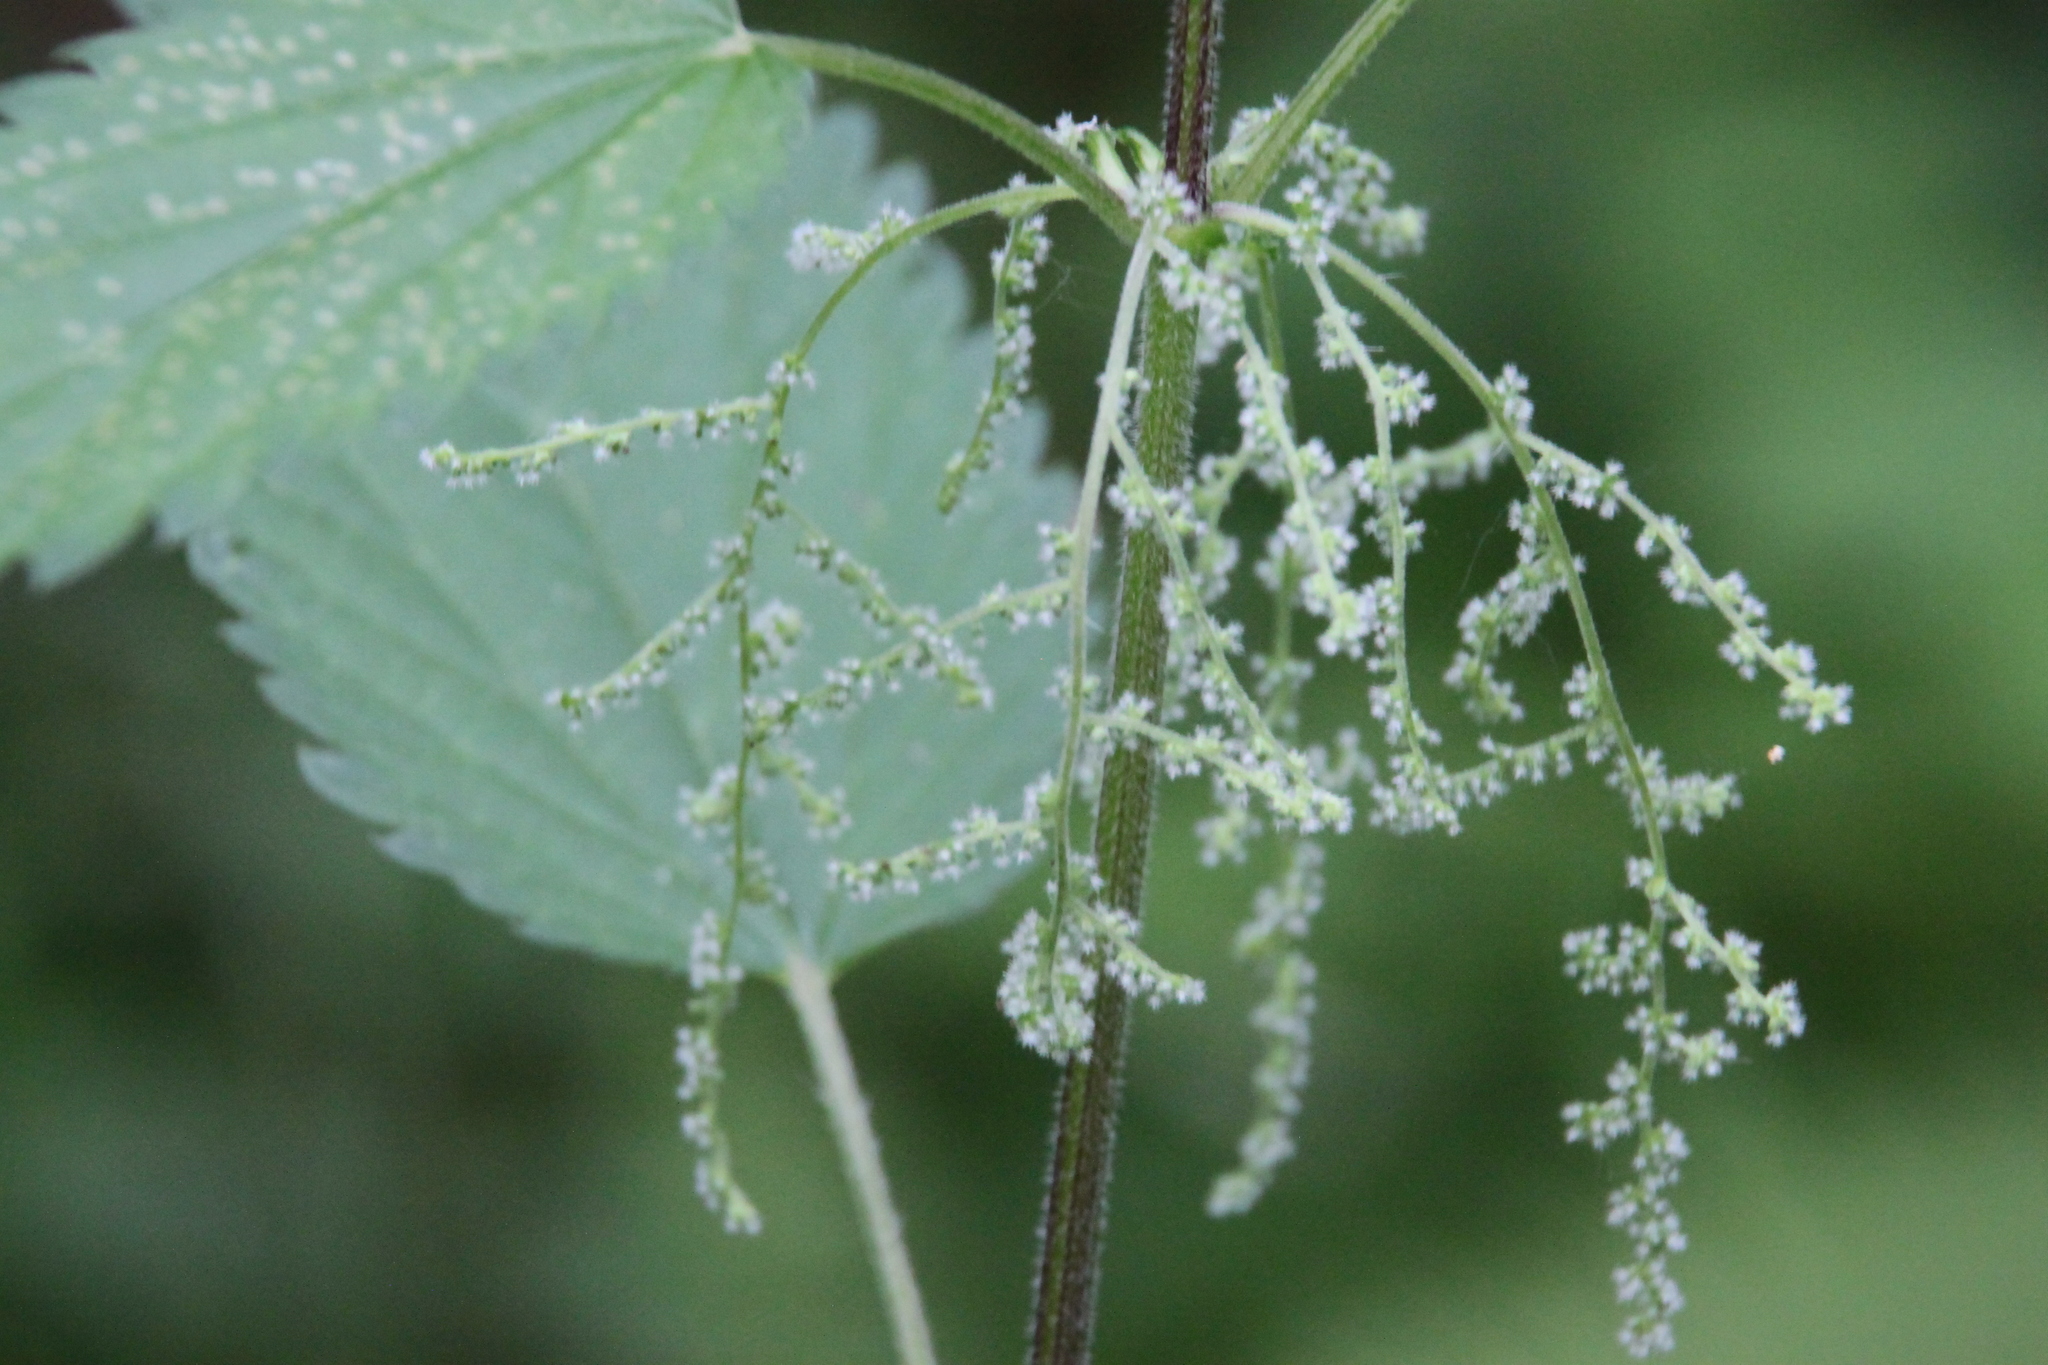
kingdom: Plantae
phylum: Tracheophyta
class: Magnoliopsida
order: Rosales
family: Urticaceae
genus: Urtica
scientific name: Urtica dioica
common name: Common nettle
